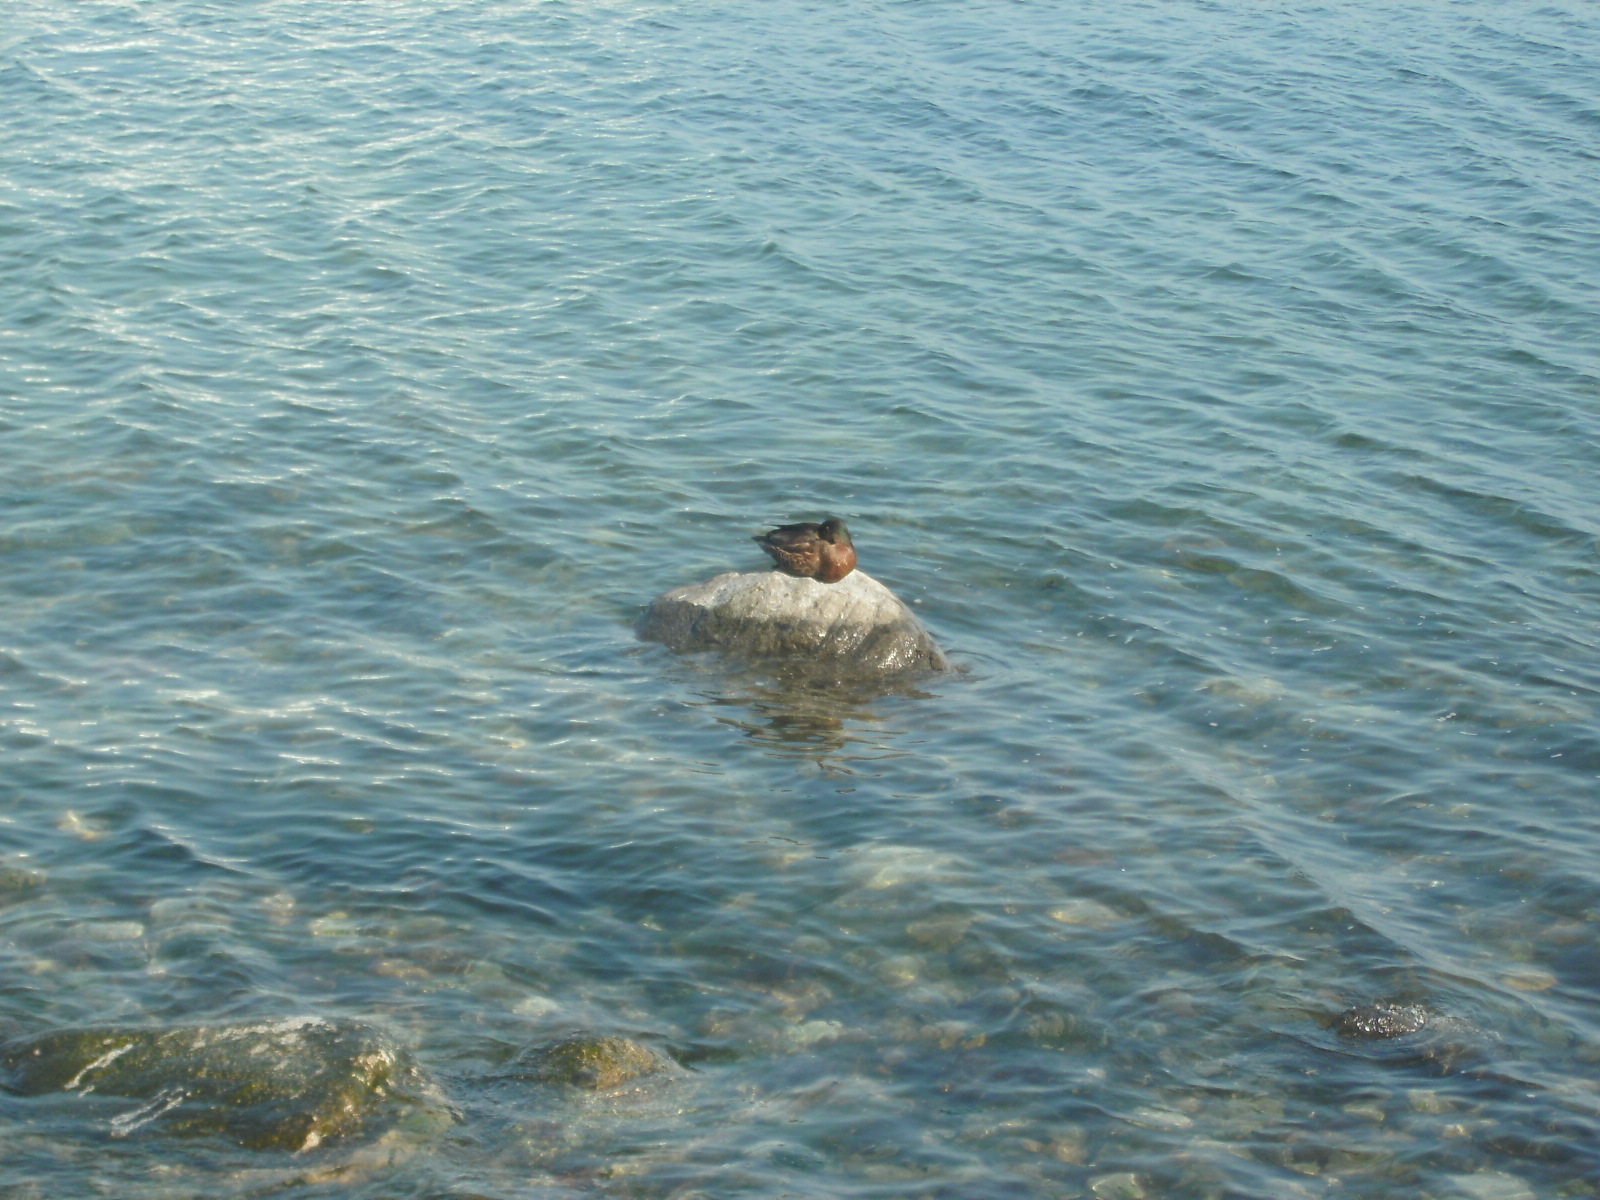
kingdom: Animalia
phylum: Chordata
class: Aves
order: Anseriformes
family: Anatidae
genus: Anas
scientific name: Anas platyrhynchos
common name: Mallard
